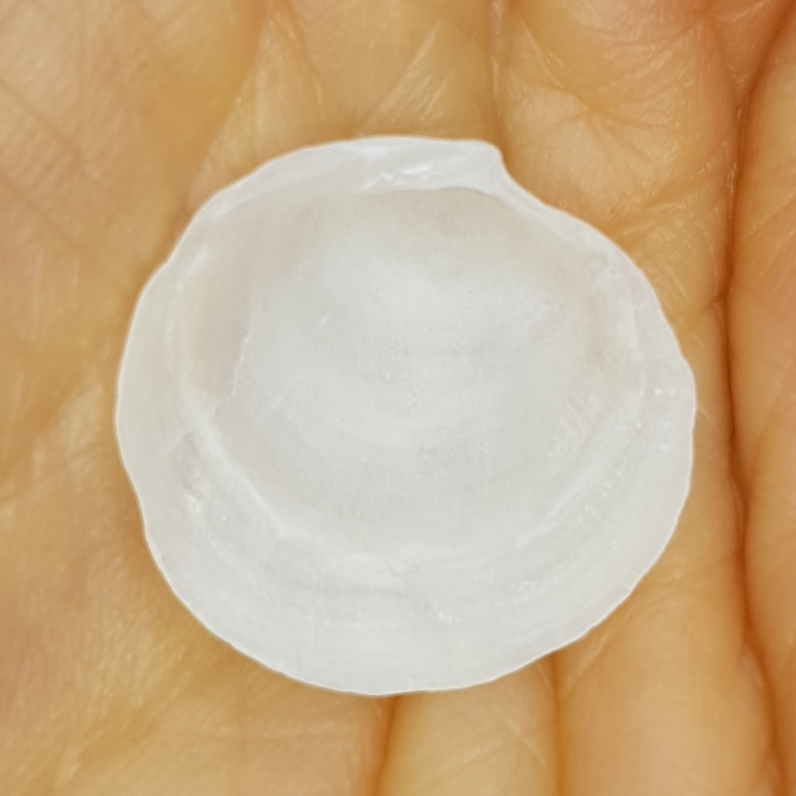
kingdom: Animalia
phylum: Mollusca
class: Bivalvia
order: Lucinida
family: Lucinidae
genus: Loripes
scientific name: Loripes orbiculatus
